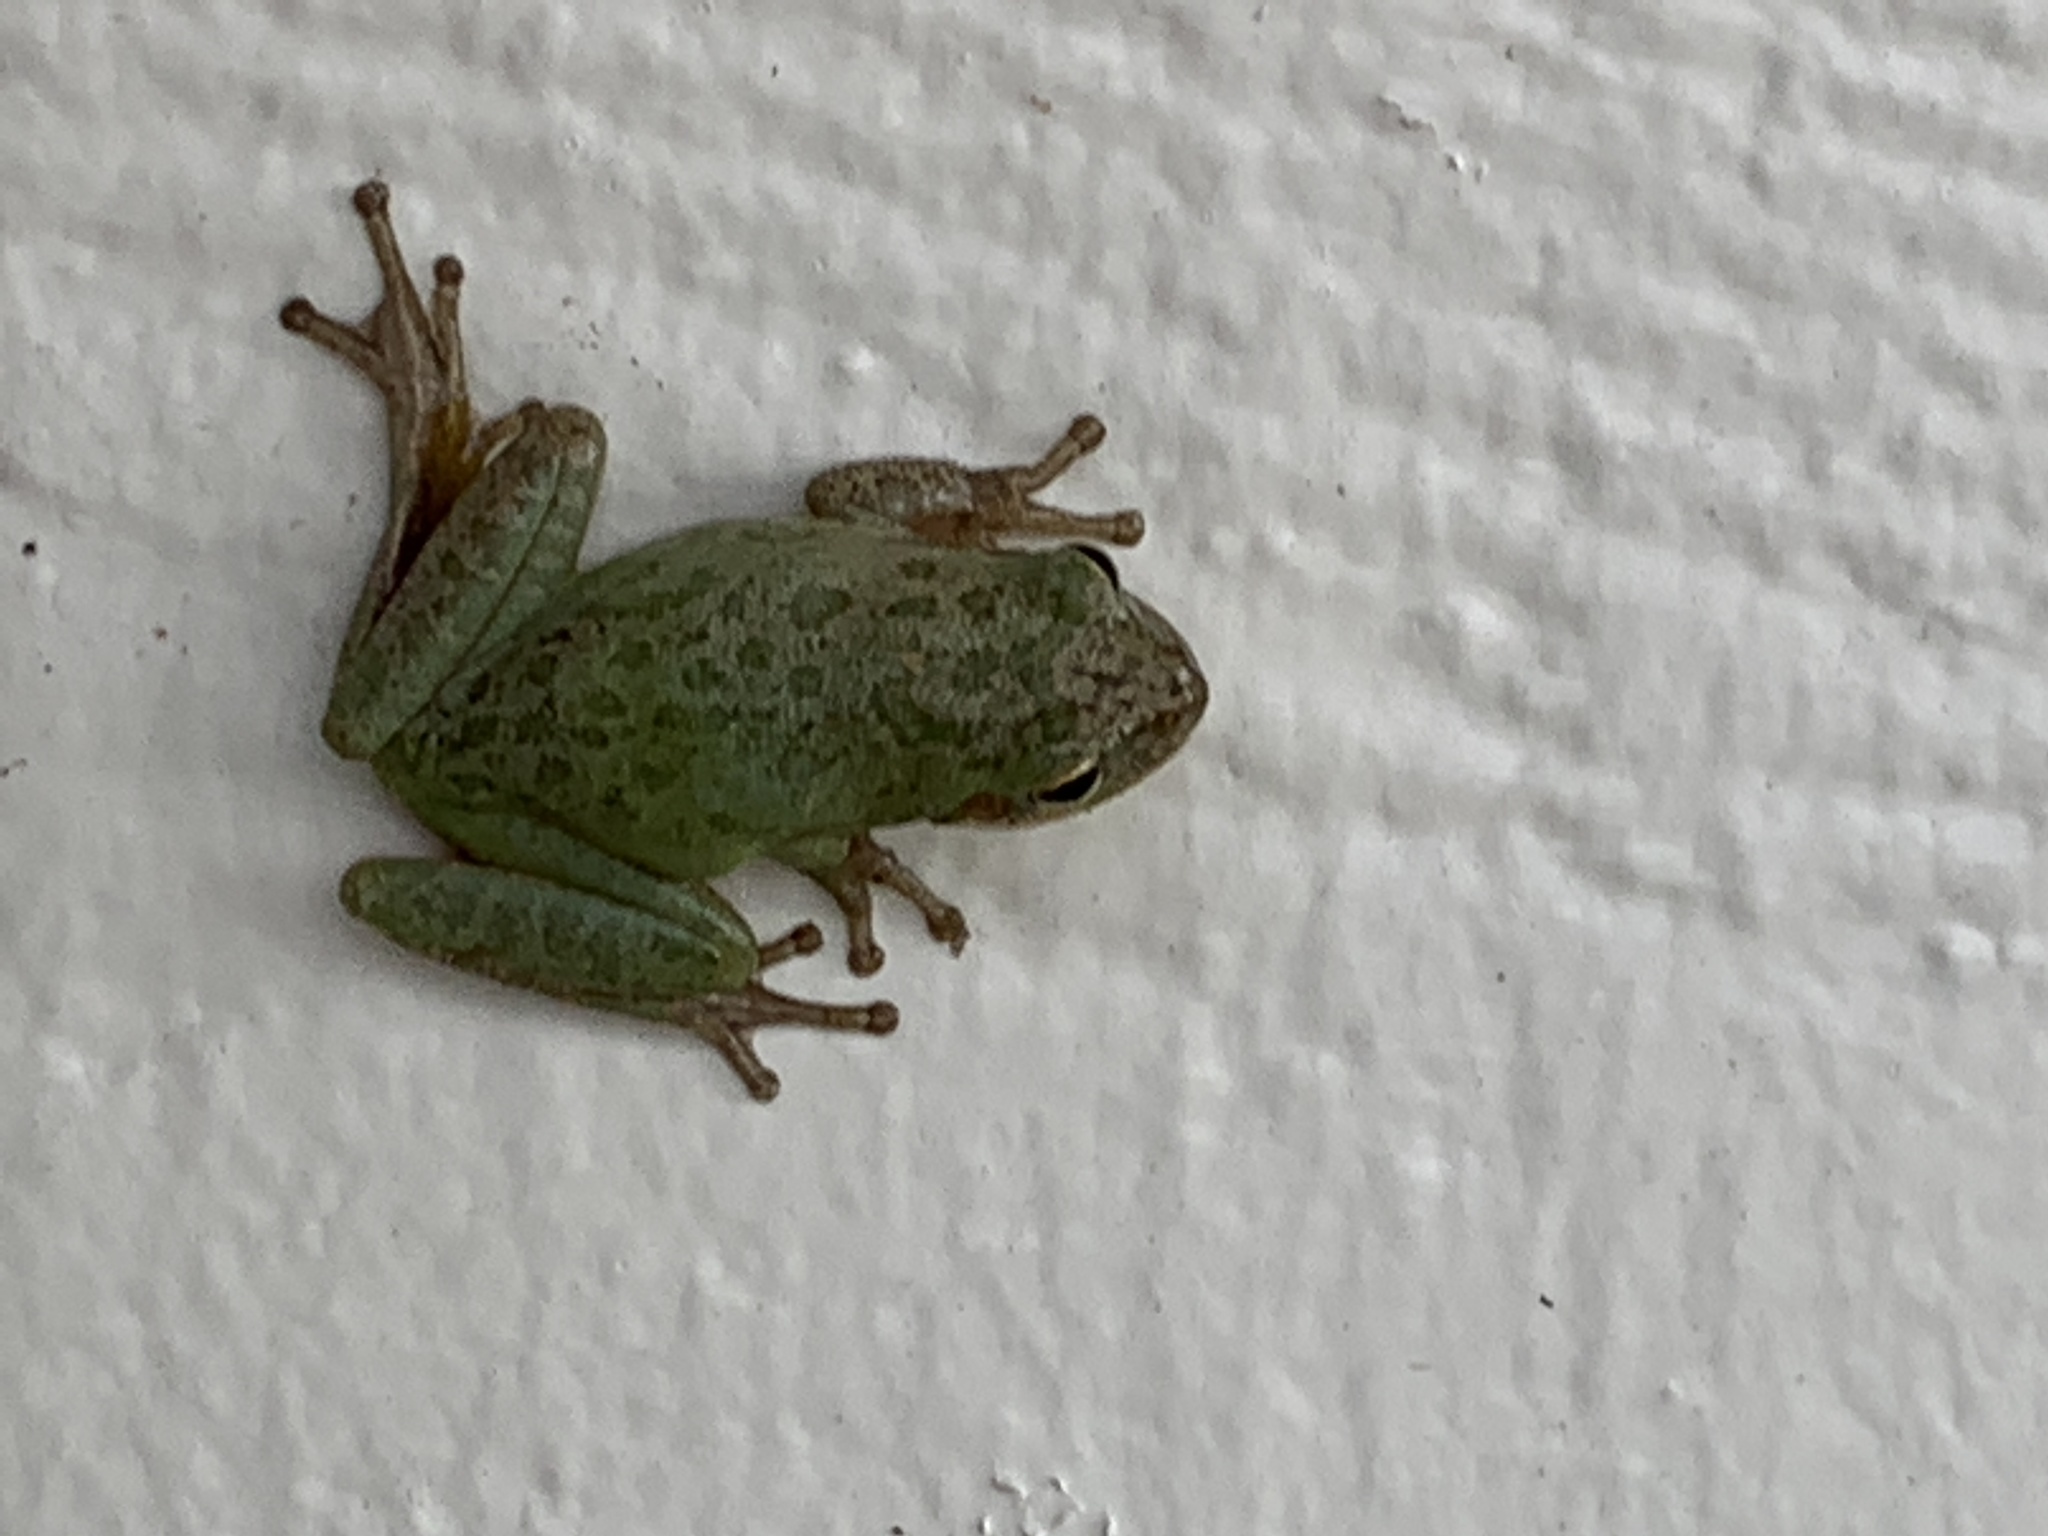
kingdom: Animalia
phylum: Chordata
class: Amphibia
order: Anura
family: Hylidae
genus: Dryophytes
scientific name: Dryophytes squirellus
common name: Squirrel treefrog
